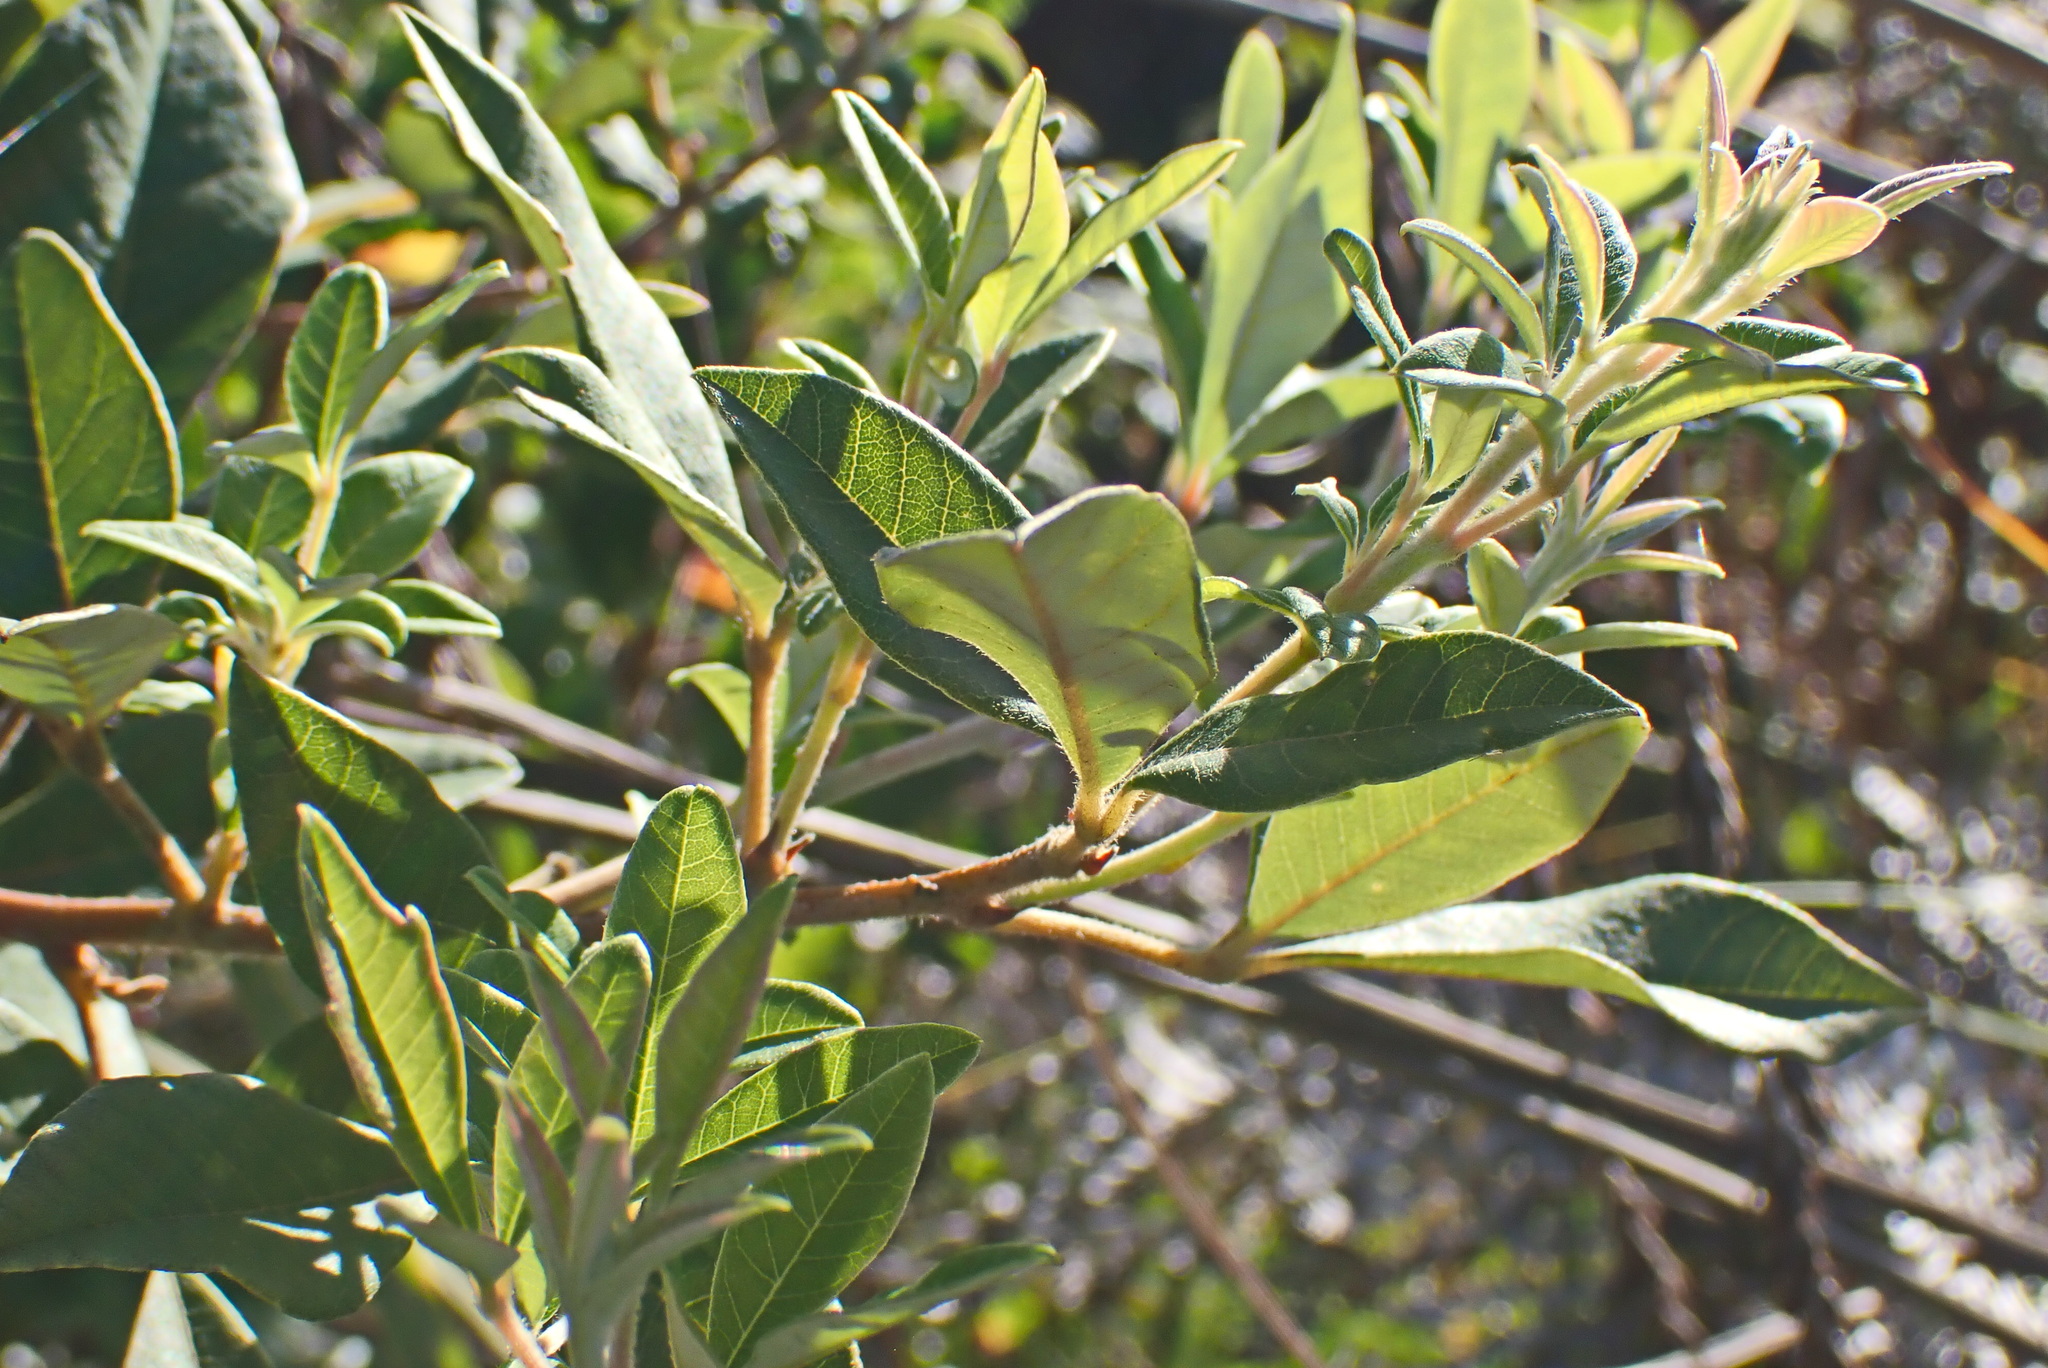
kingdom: Plantae
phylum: Tracheophyta
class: Magnoliopsida
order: Sapindales
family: Anacardiaceae
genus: Searsia
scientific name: Searsia pyroides
